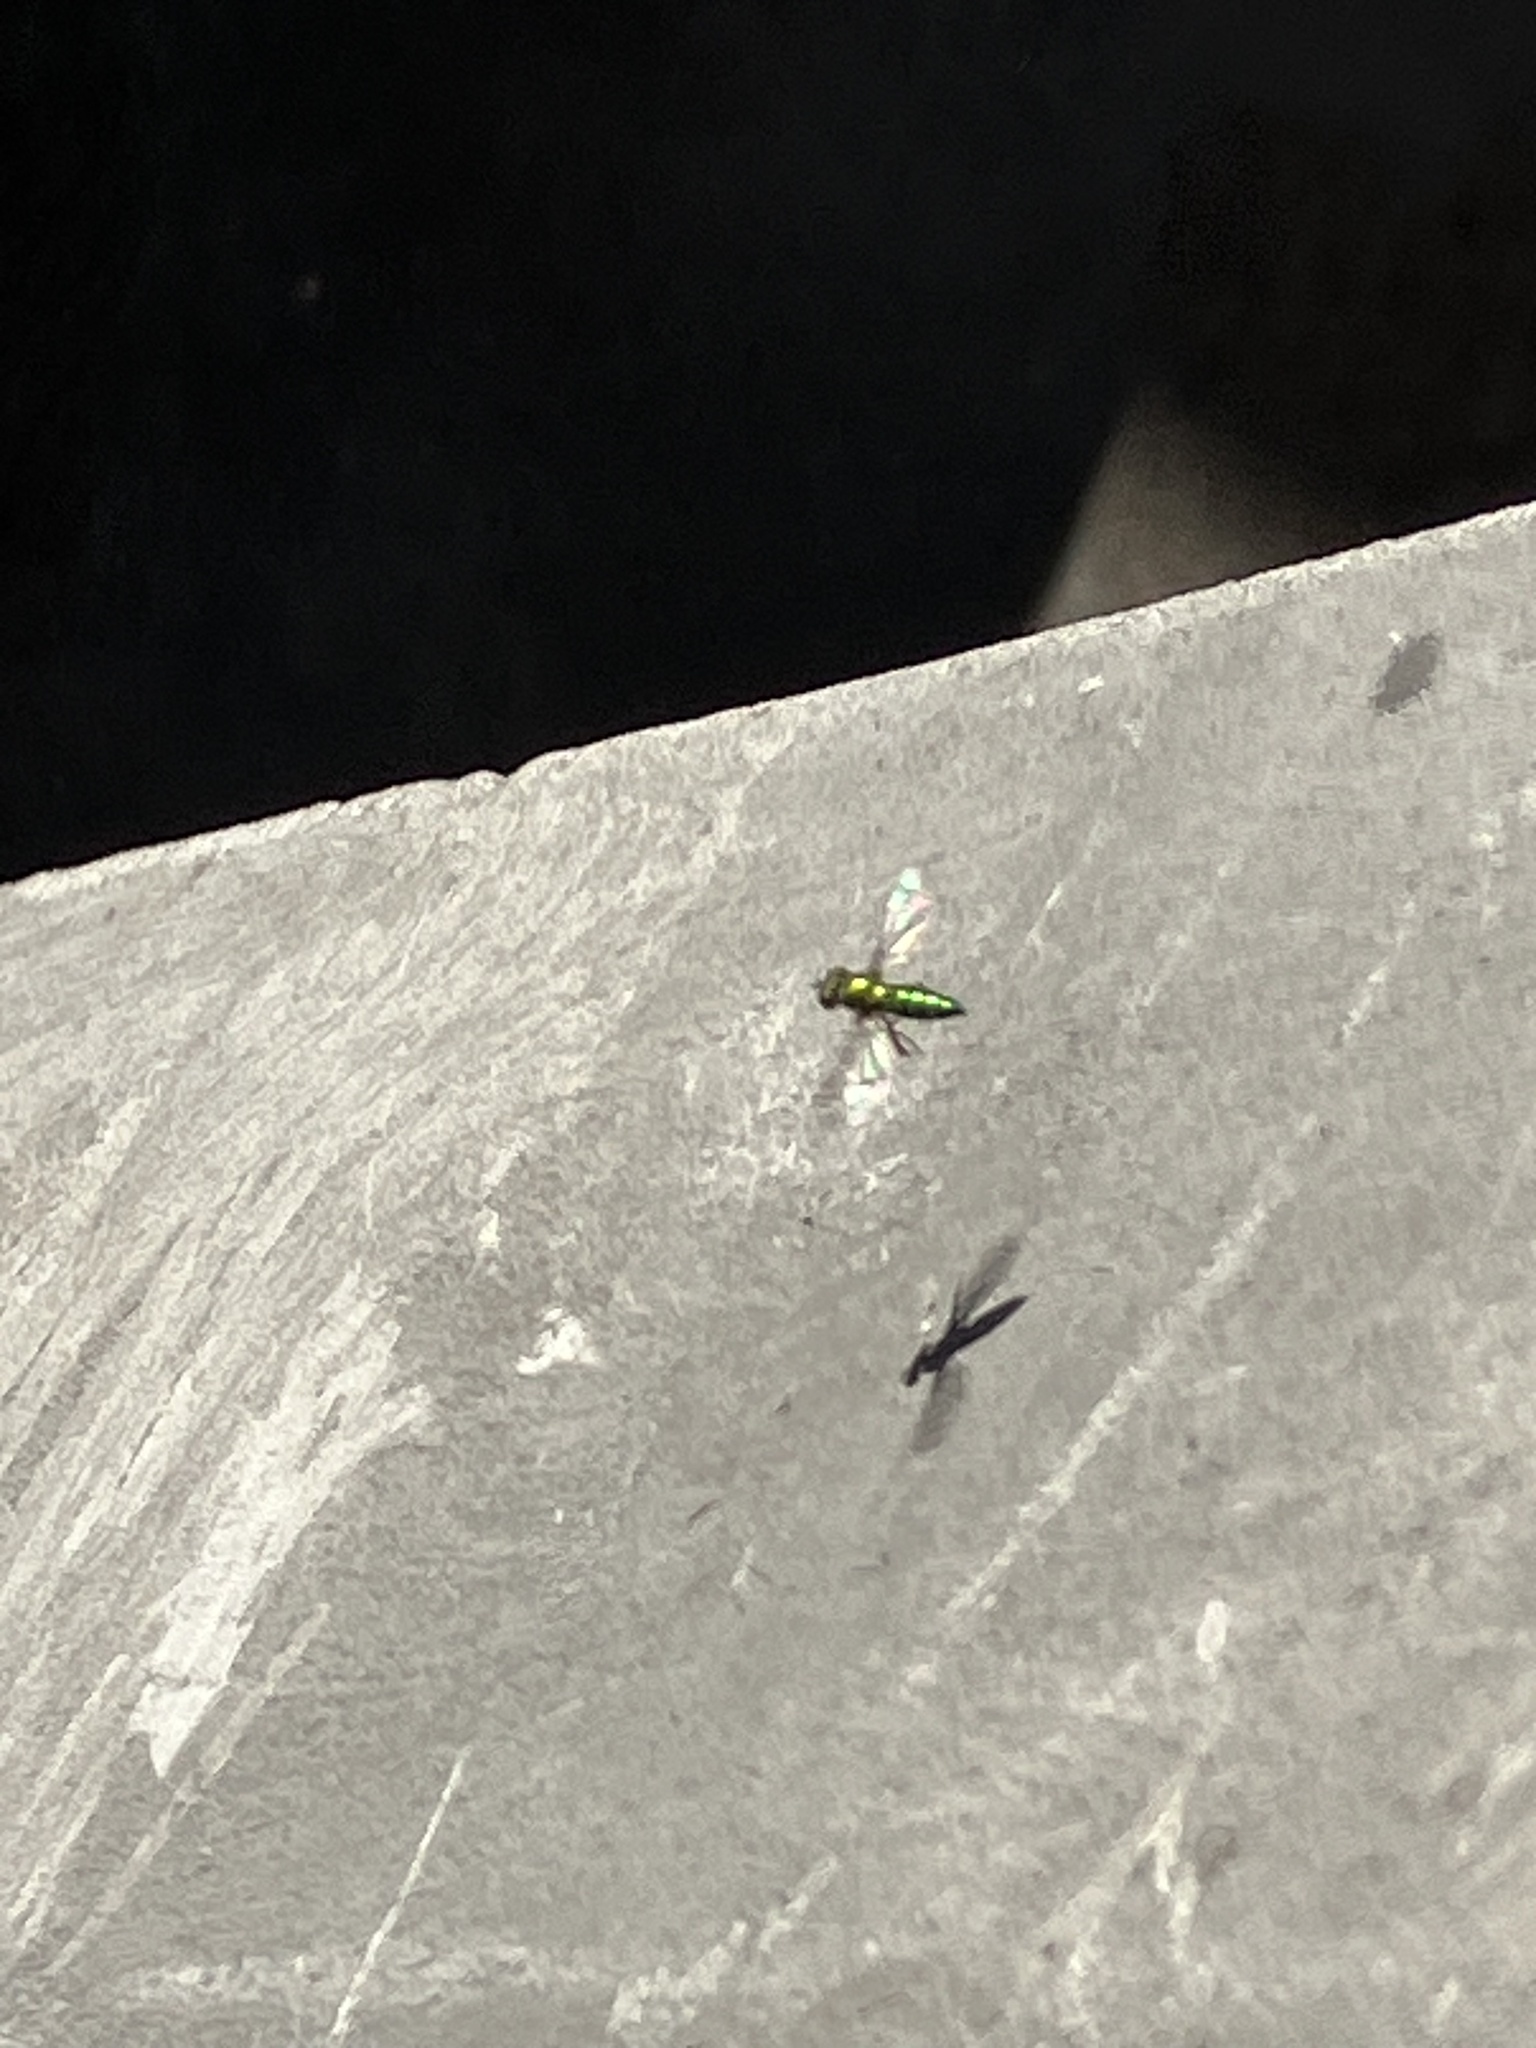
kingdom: Animalia
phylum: Arthropoda
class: Insecta
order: Diptera
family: Dolichopodidae
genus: Condylostylus
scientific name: Condylostylus
